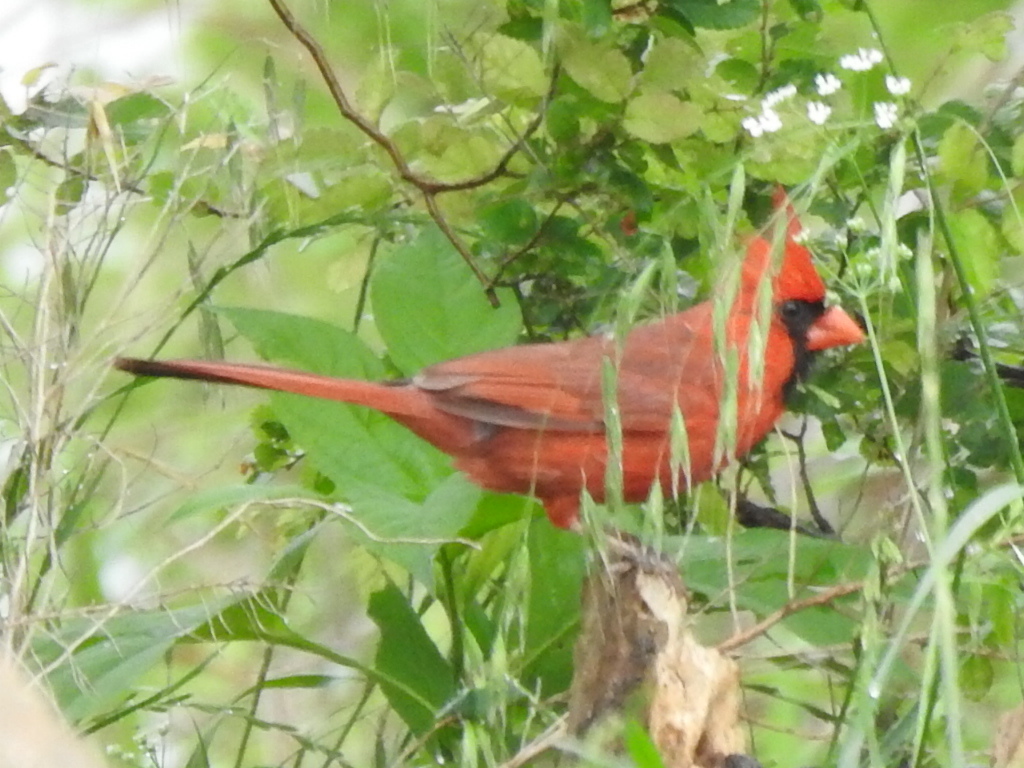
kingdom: Animalia
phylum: Chordata
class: Aves
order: Passeriformes
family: Cardinalidae
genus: Cardinalis
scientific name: Cardinalis cardinalis
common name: Northern cardinal
